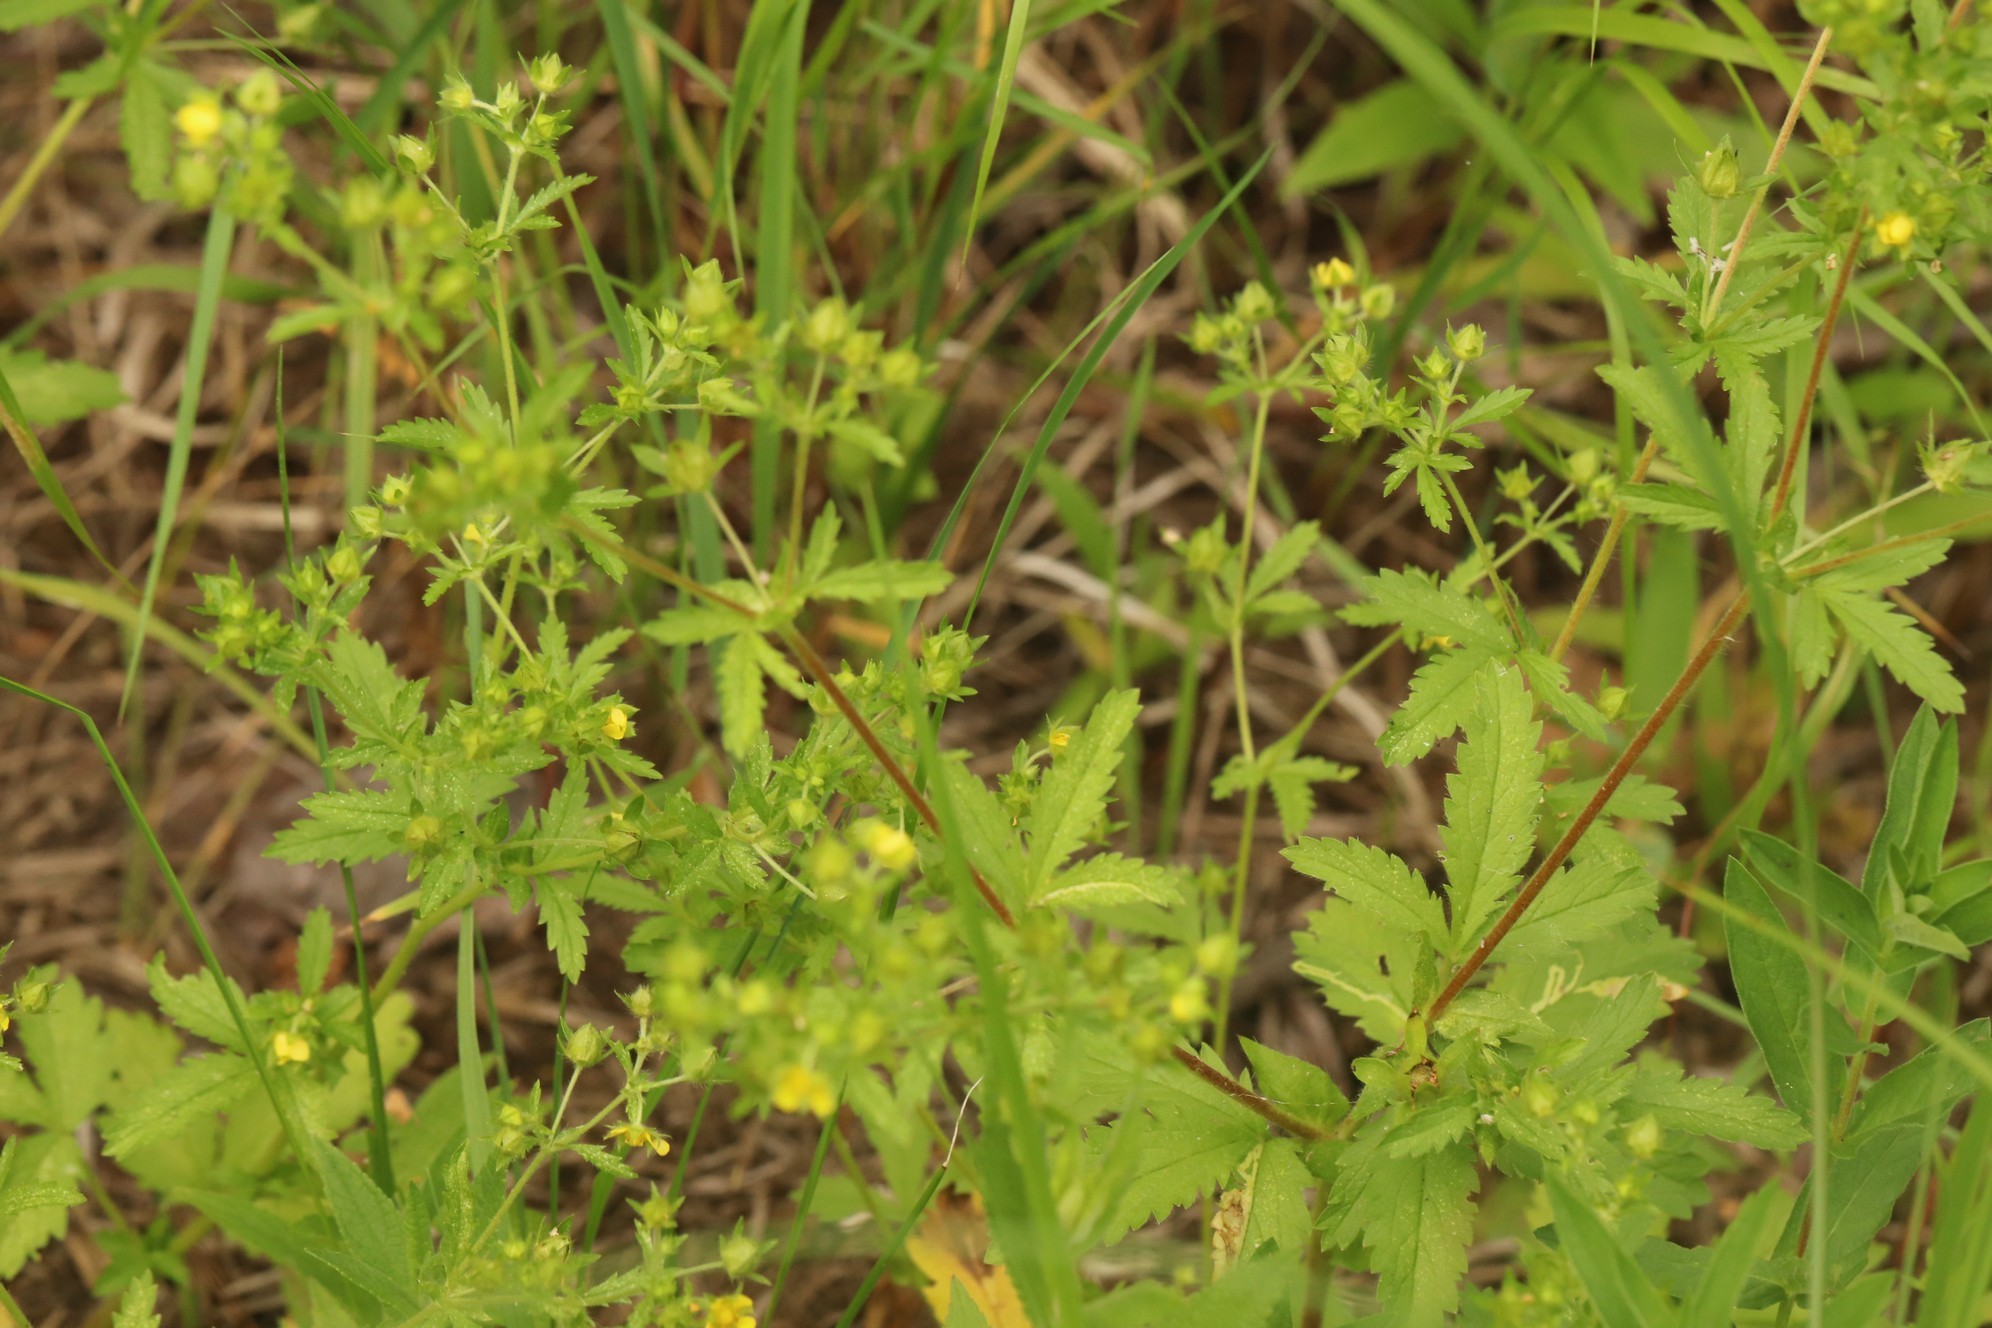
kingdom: Plantae
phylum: Tracheophyta
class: Magnoliopsida
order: Rosales
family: Rosaceae
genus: Potentilla
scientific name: Potentilla norvegica
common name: Ternate-leaved cinquefoil
